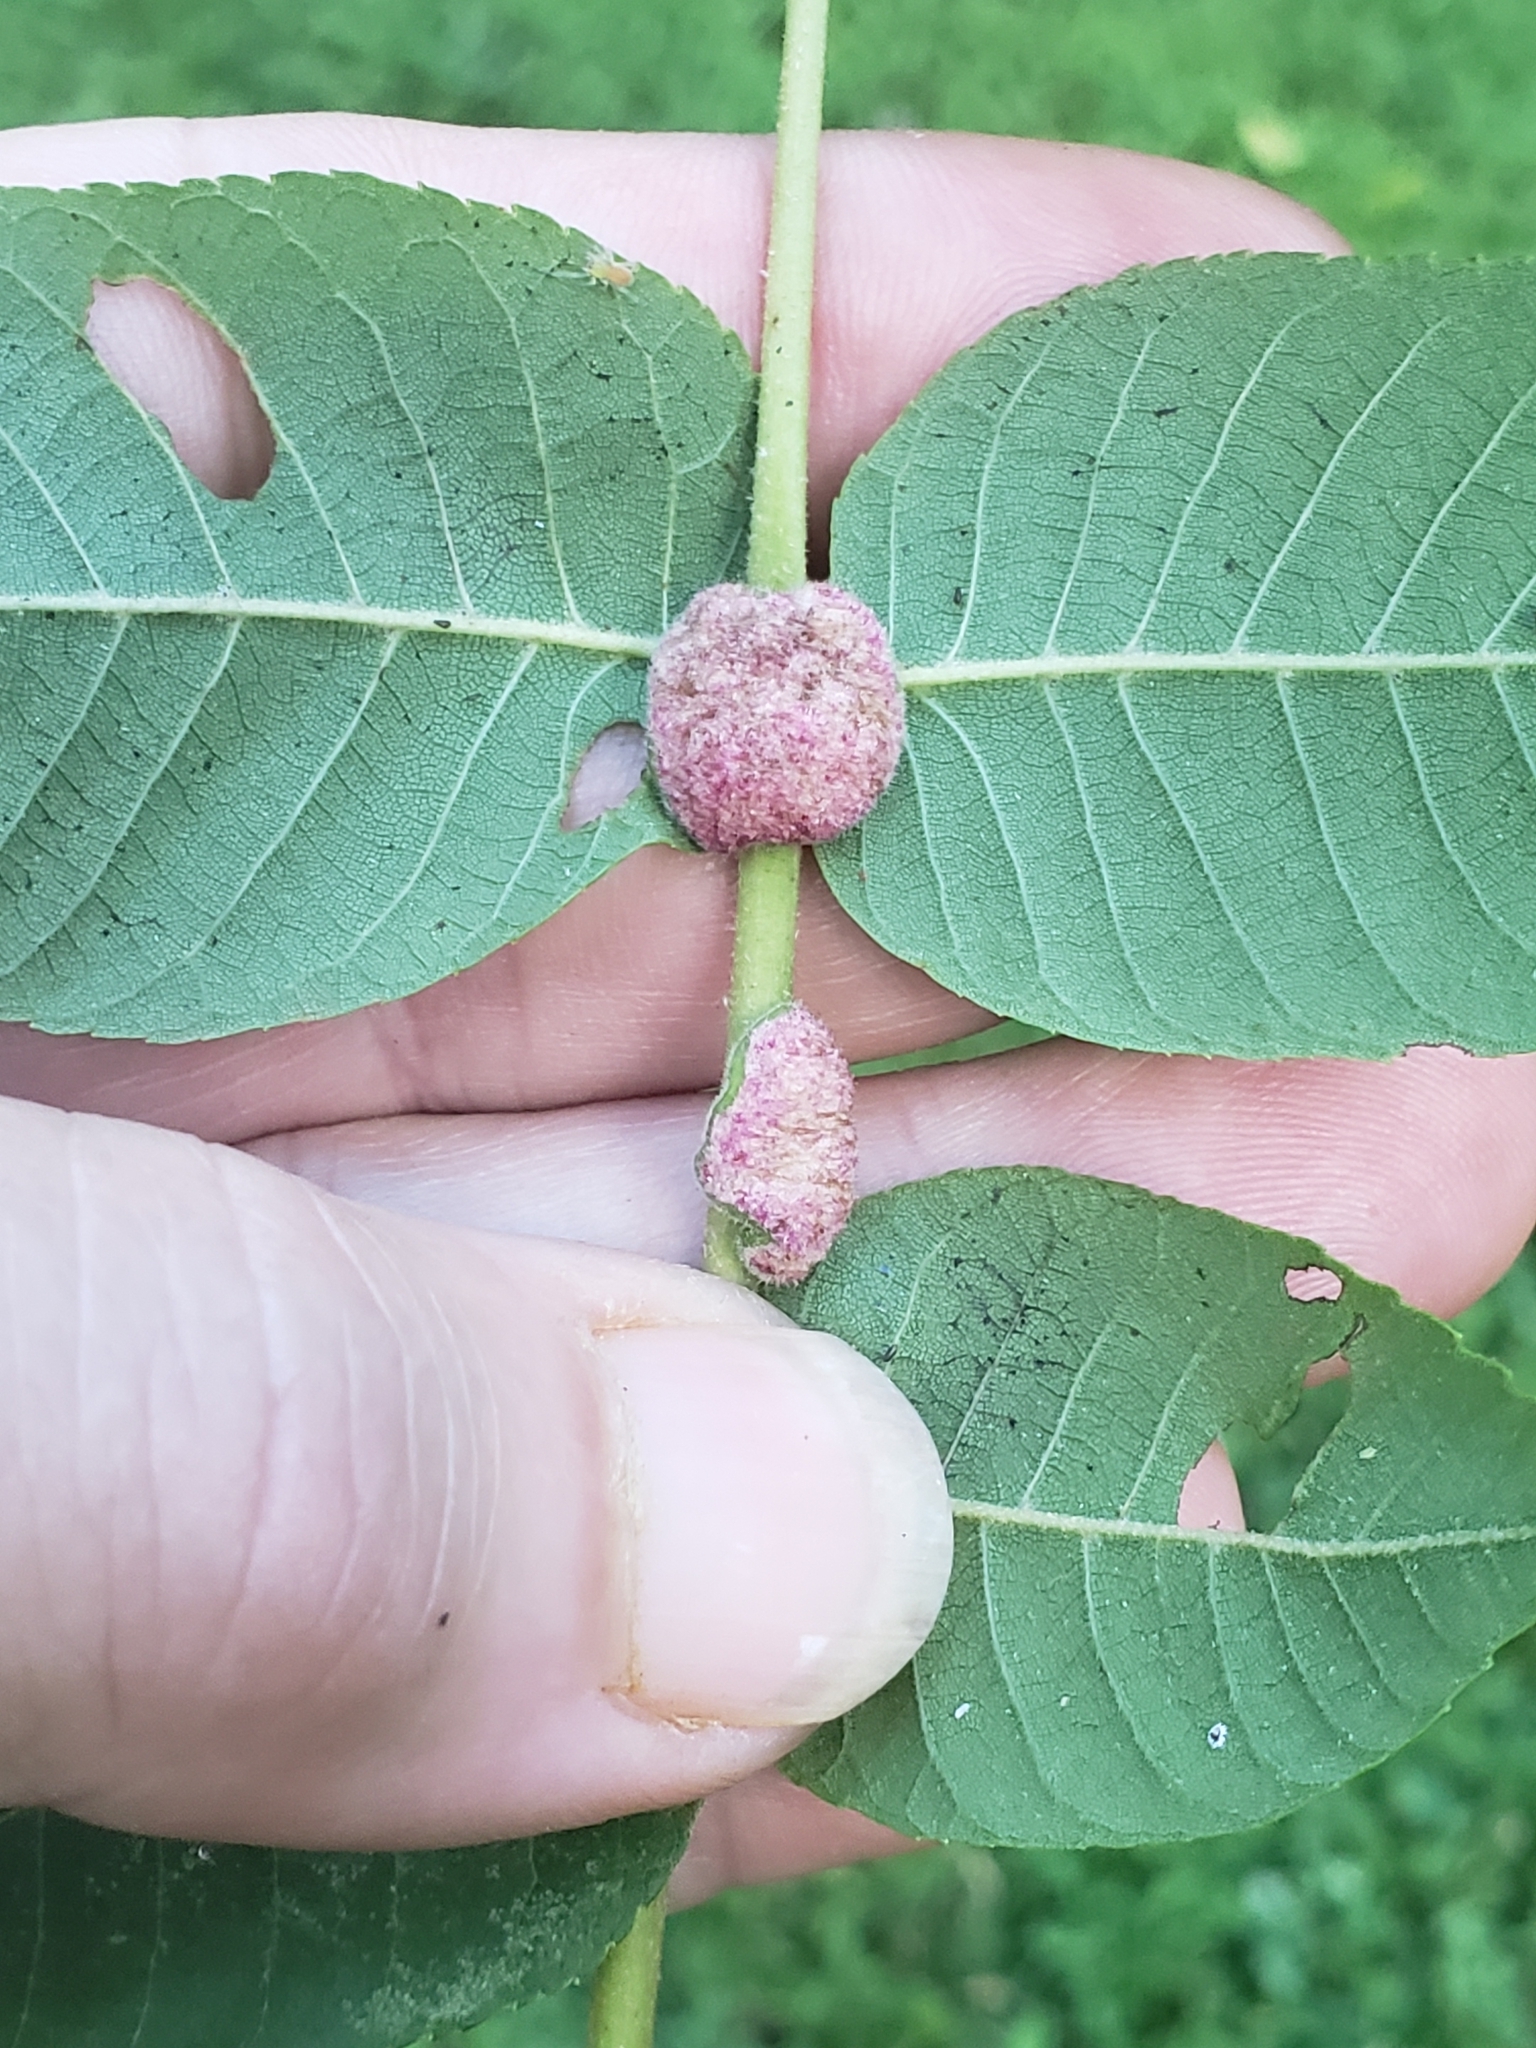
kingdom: Animalia
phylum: Arthropoda
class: Arachnida
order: Trombidiformes
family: Eriophyidae
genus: Aceria
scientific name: Aceria
